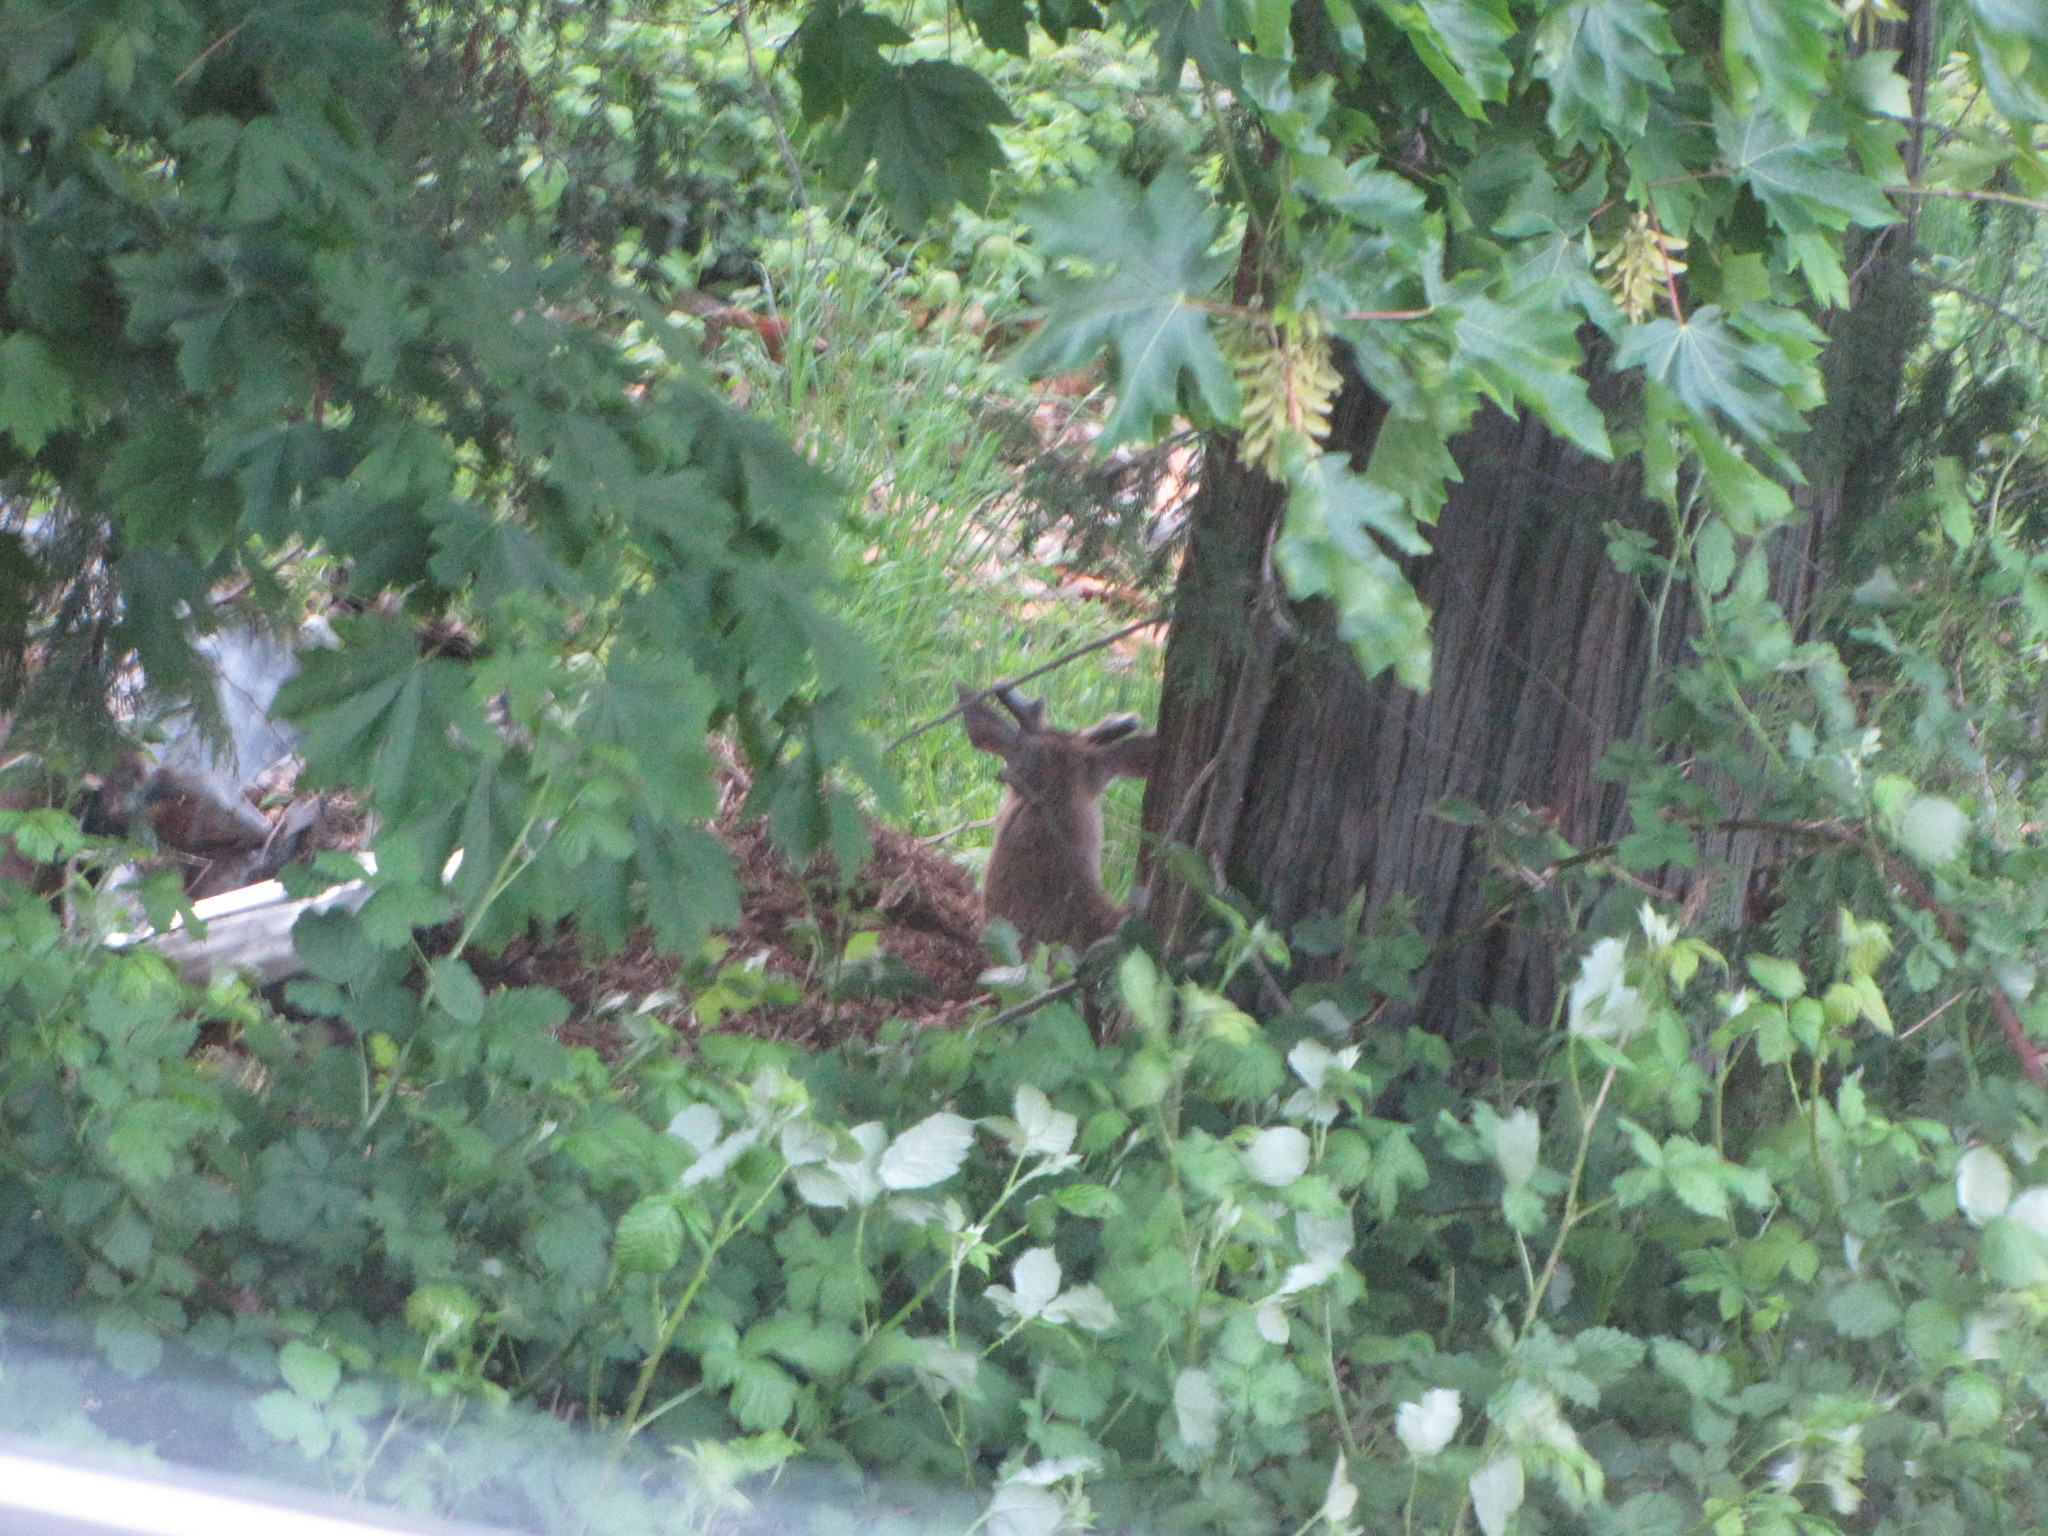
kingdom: Animalia
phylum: Chordata
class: Mammalia
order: Artiodactyla
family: Cervidae
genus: Odocoileus
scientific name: Odocoileus hemionus
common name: Mule deer
